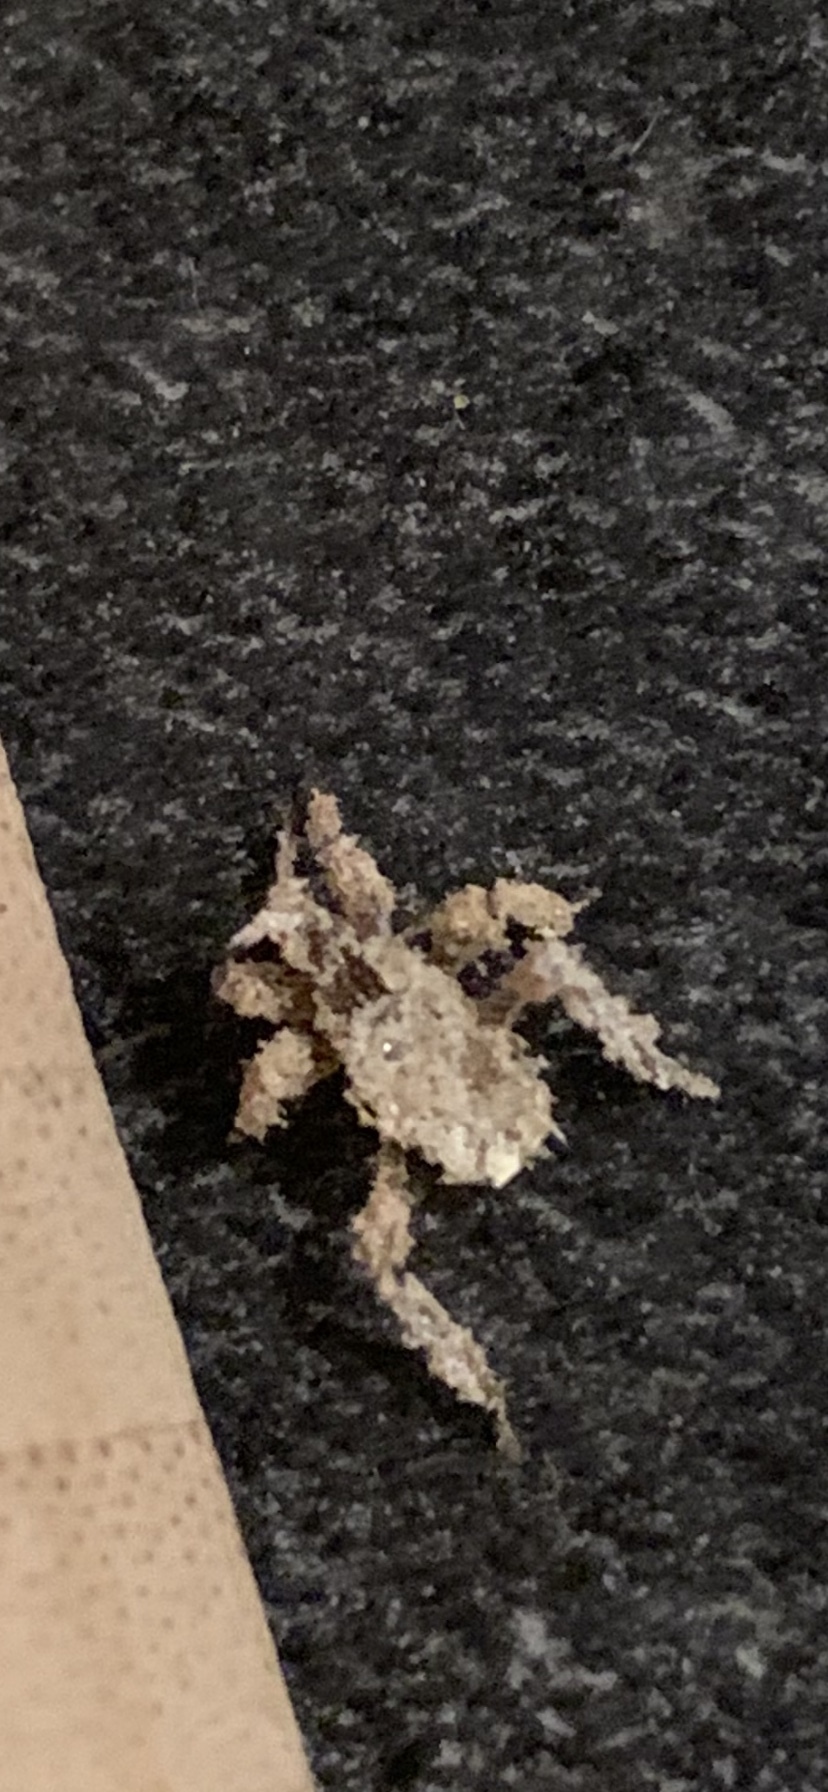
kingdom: Animalia
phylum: Arthropoda
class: Insecta
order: Hemiptera
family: Reduviidae
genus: Reduvius
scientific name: Reduvius personatus
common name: Masked hunter
